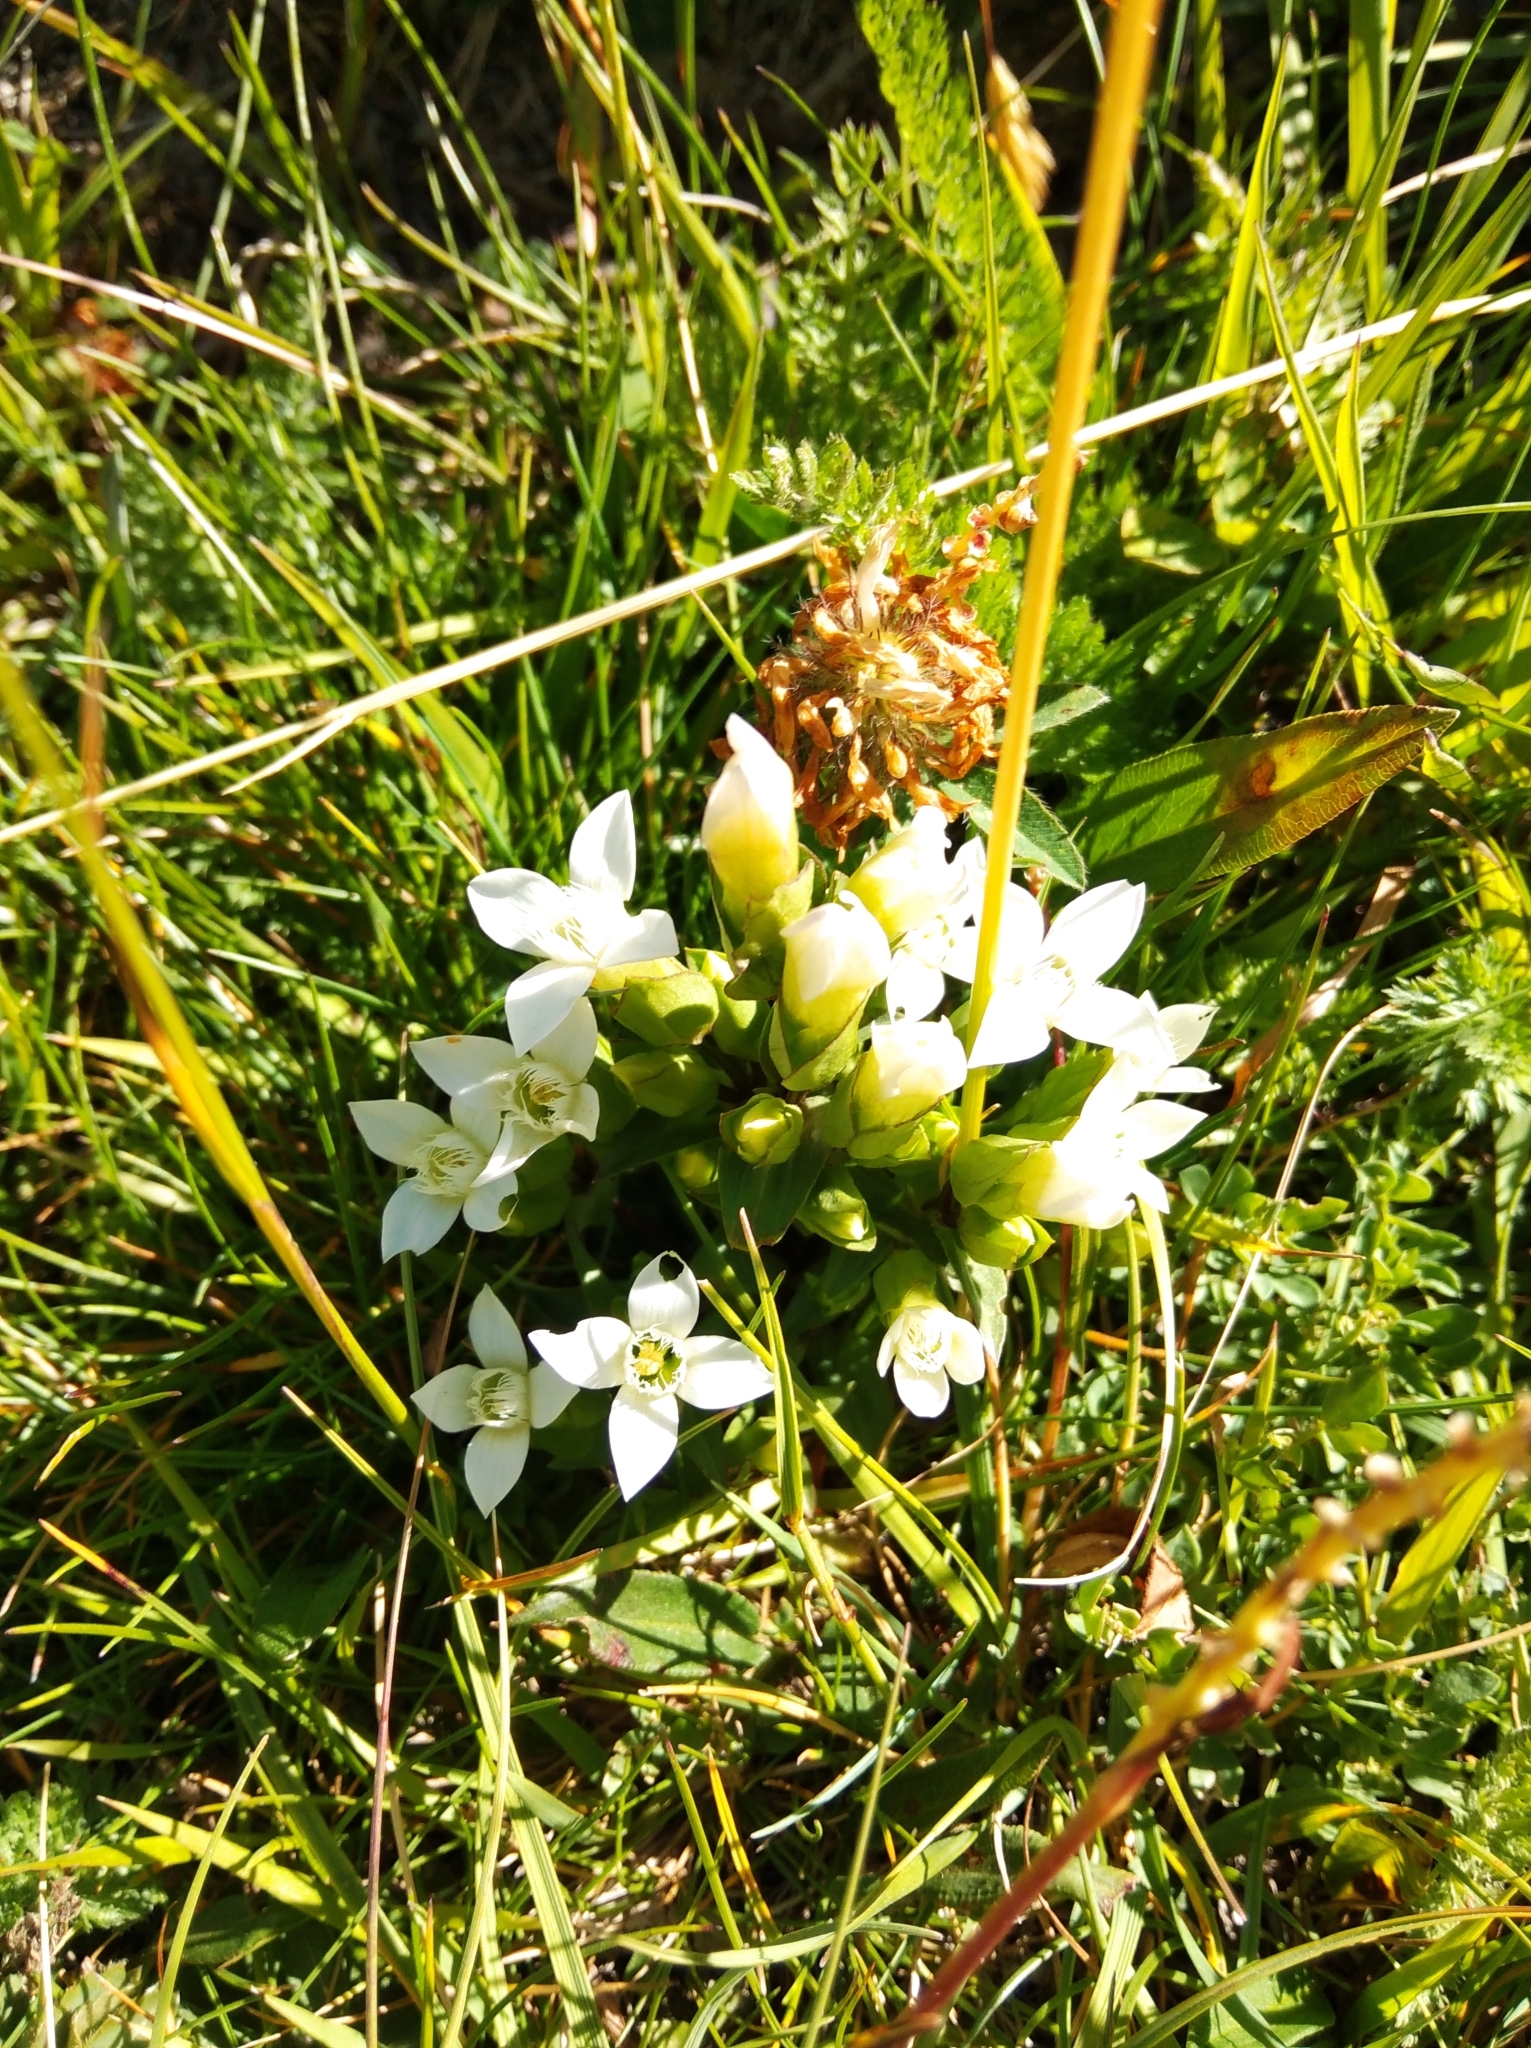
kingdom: Plantae
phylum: Tracheophyta
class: Magnoliopsida
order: Gentianales
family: Gentianaceae
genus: Gentianella
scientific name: Gentianella campestris
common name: Field gentian
